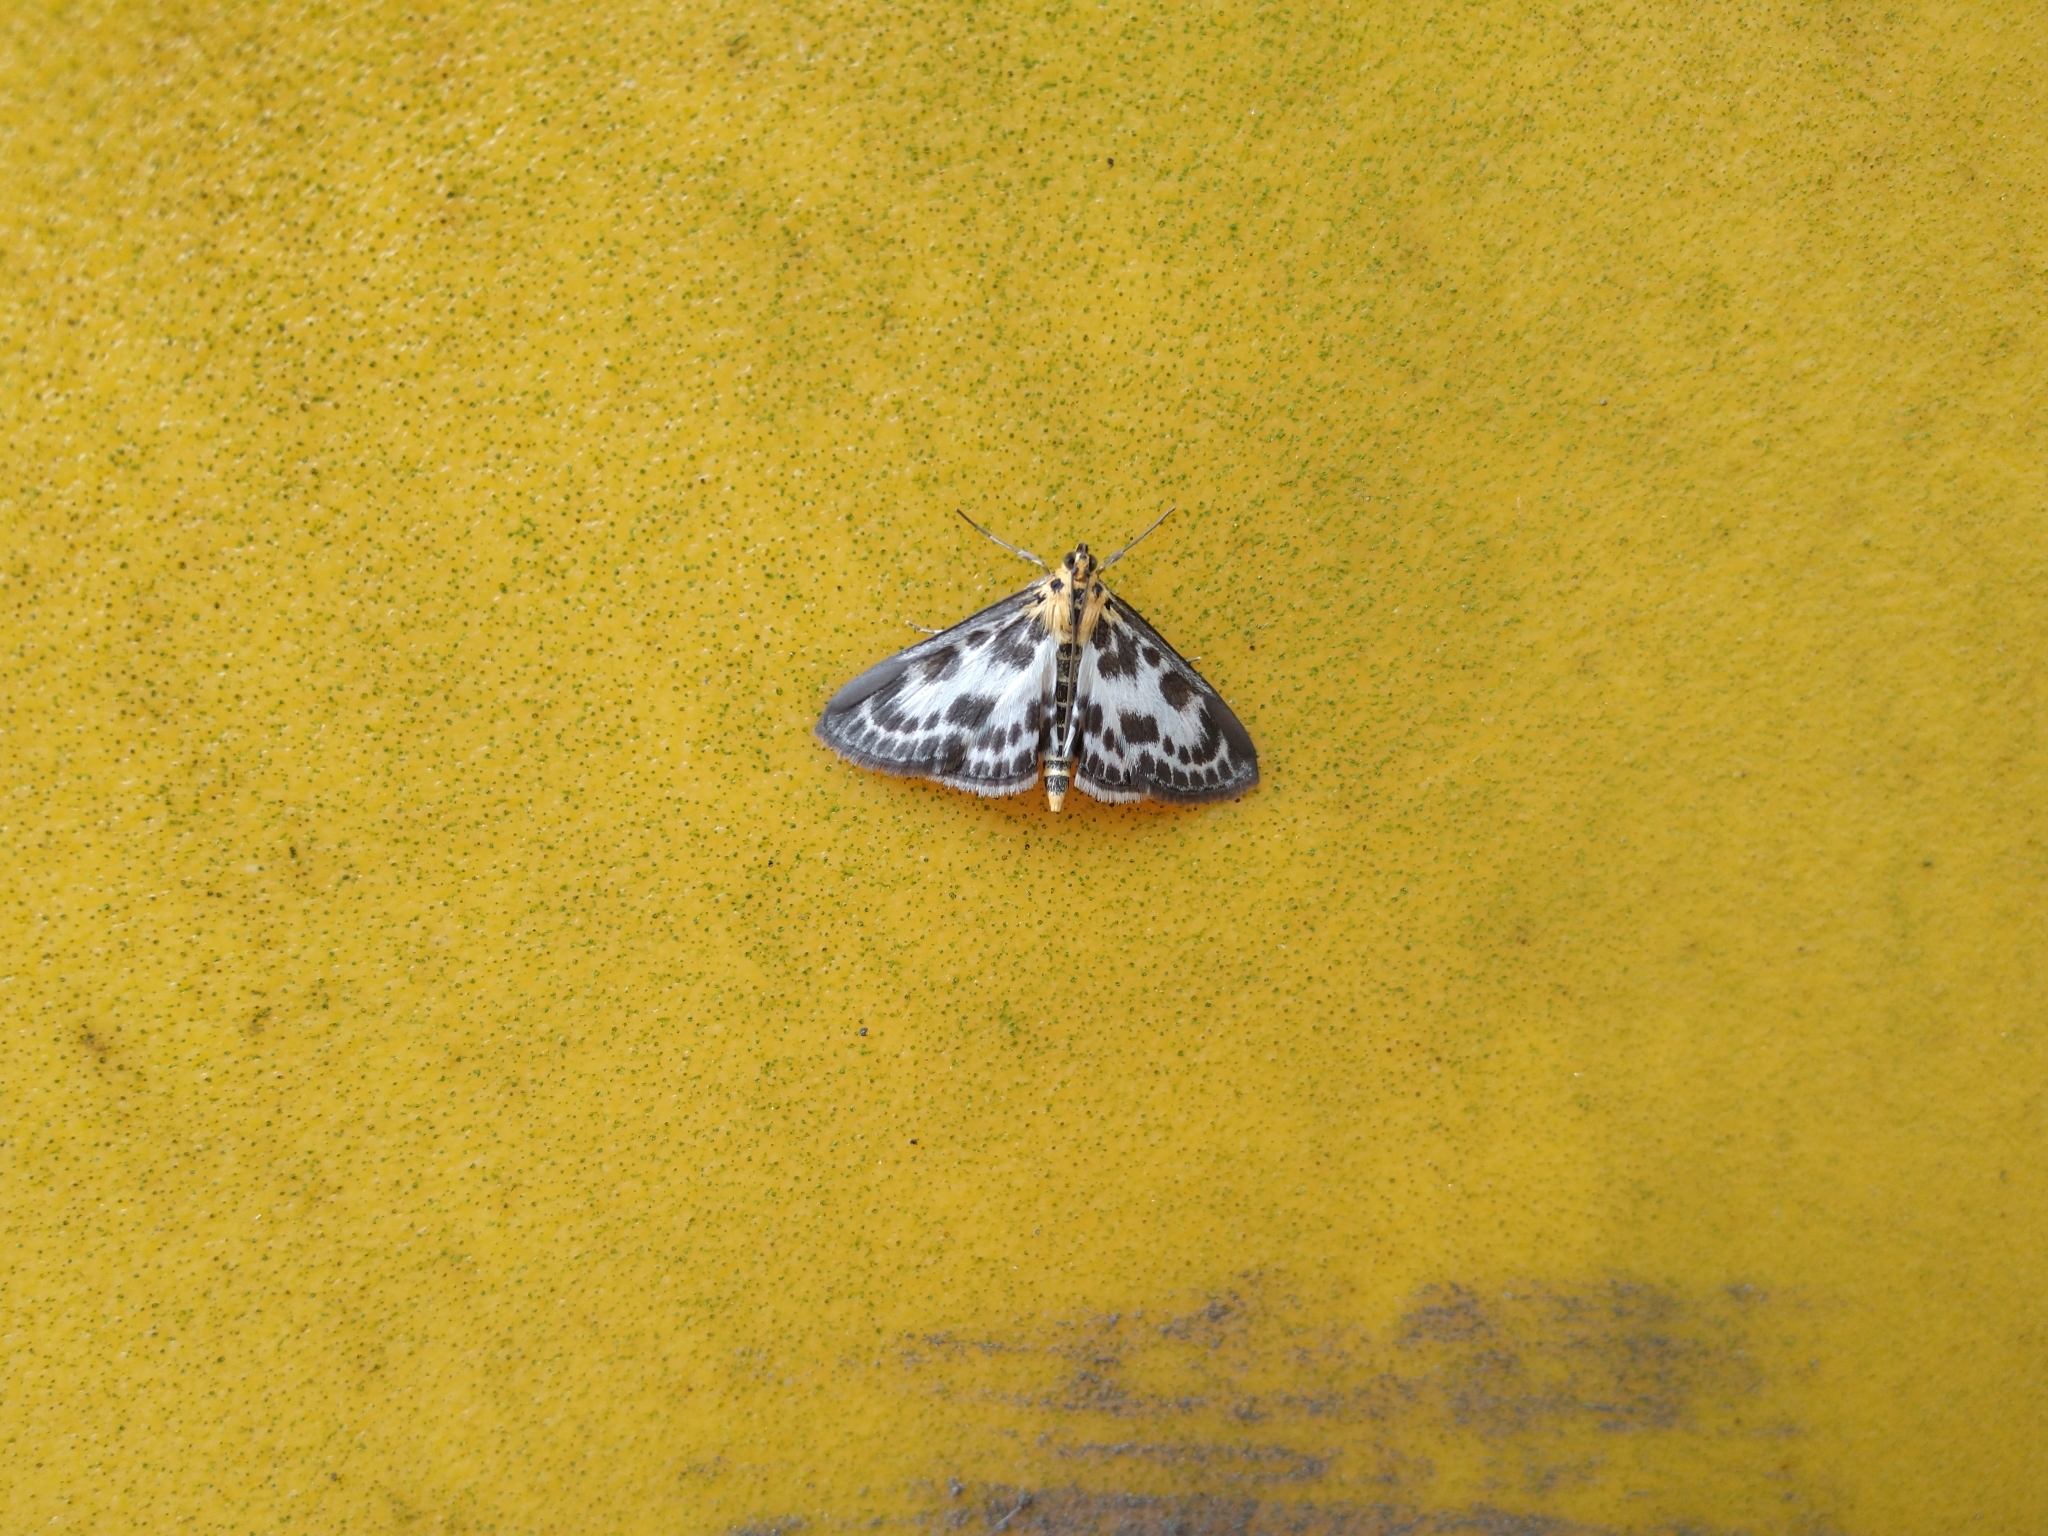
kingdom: Animalia
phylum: Arthropoda
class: Insecta
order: Lepidoptera
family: Crambidae
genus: Anania
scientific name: Anania hortulata
